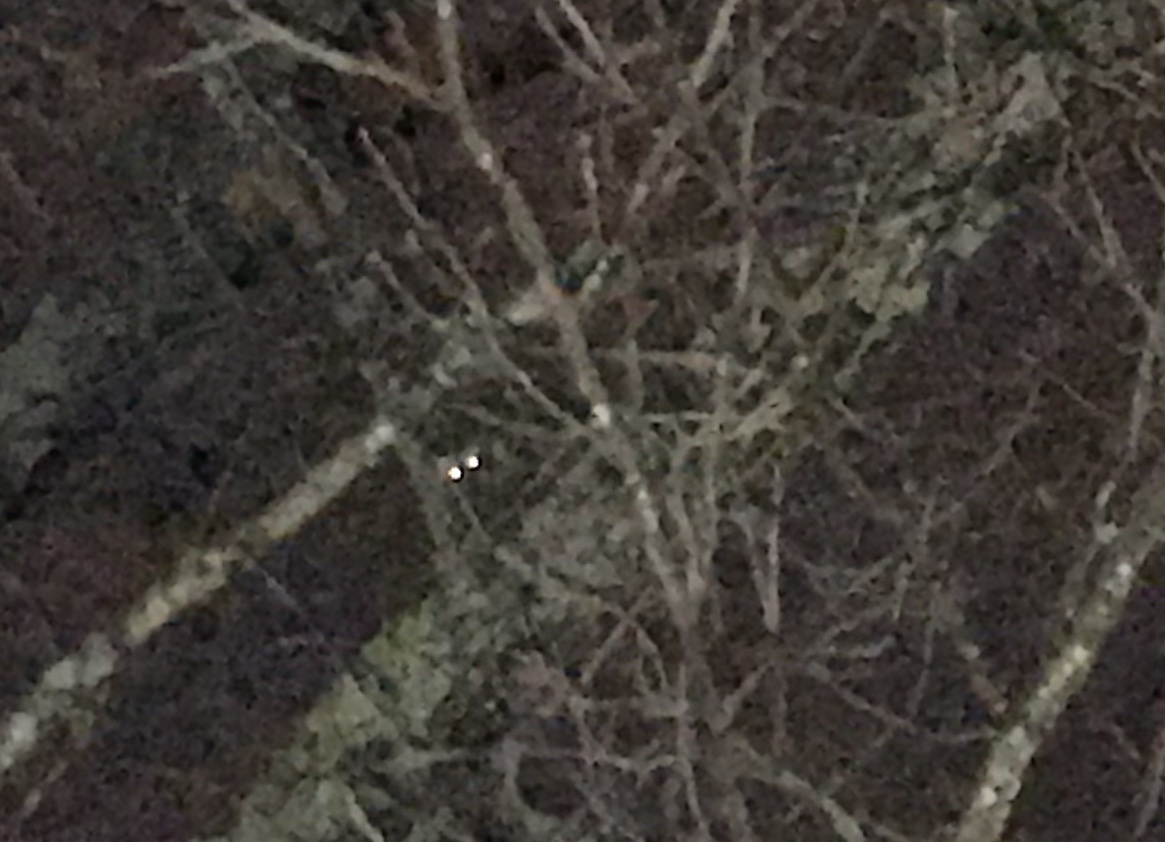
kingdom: Animalia
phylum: Chordata
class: Mammalia
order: Carnivora
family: Procyonidae
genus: Procyon
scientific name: Procyon lotor
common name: Raccoon
